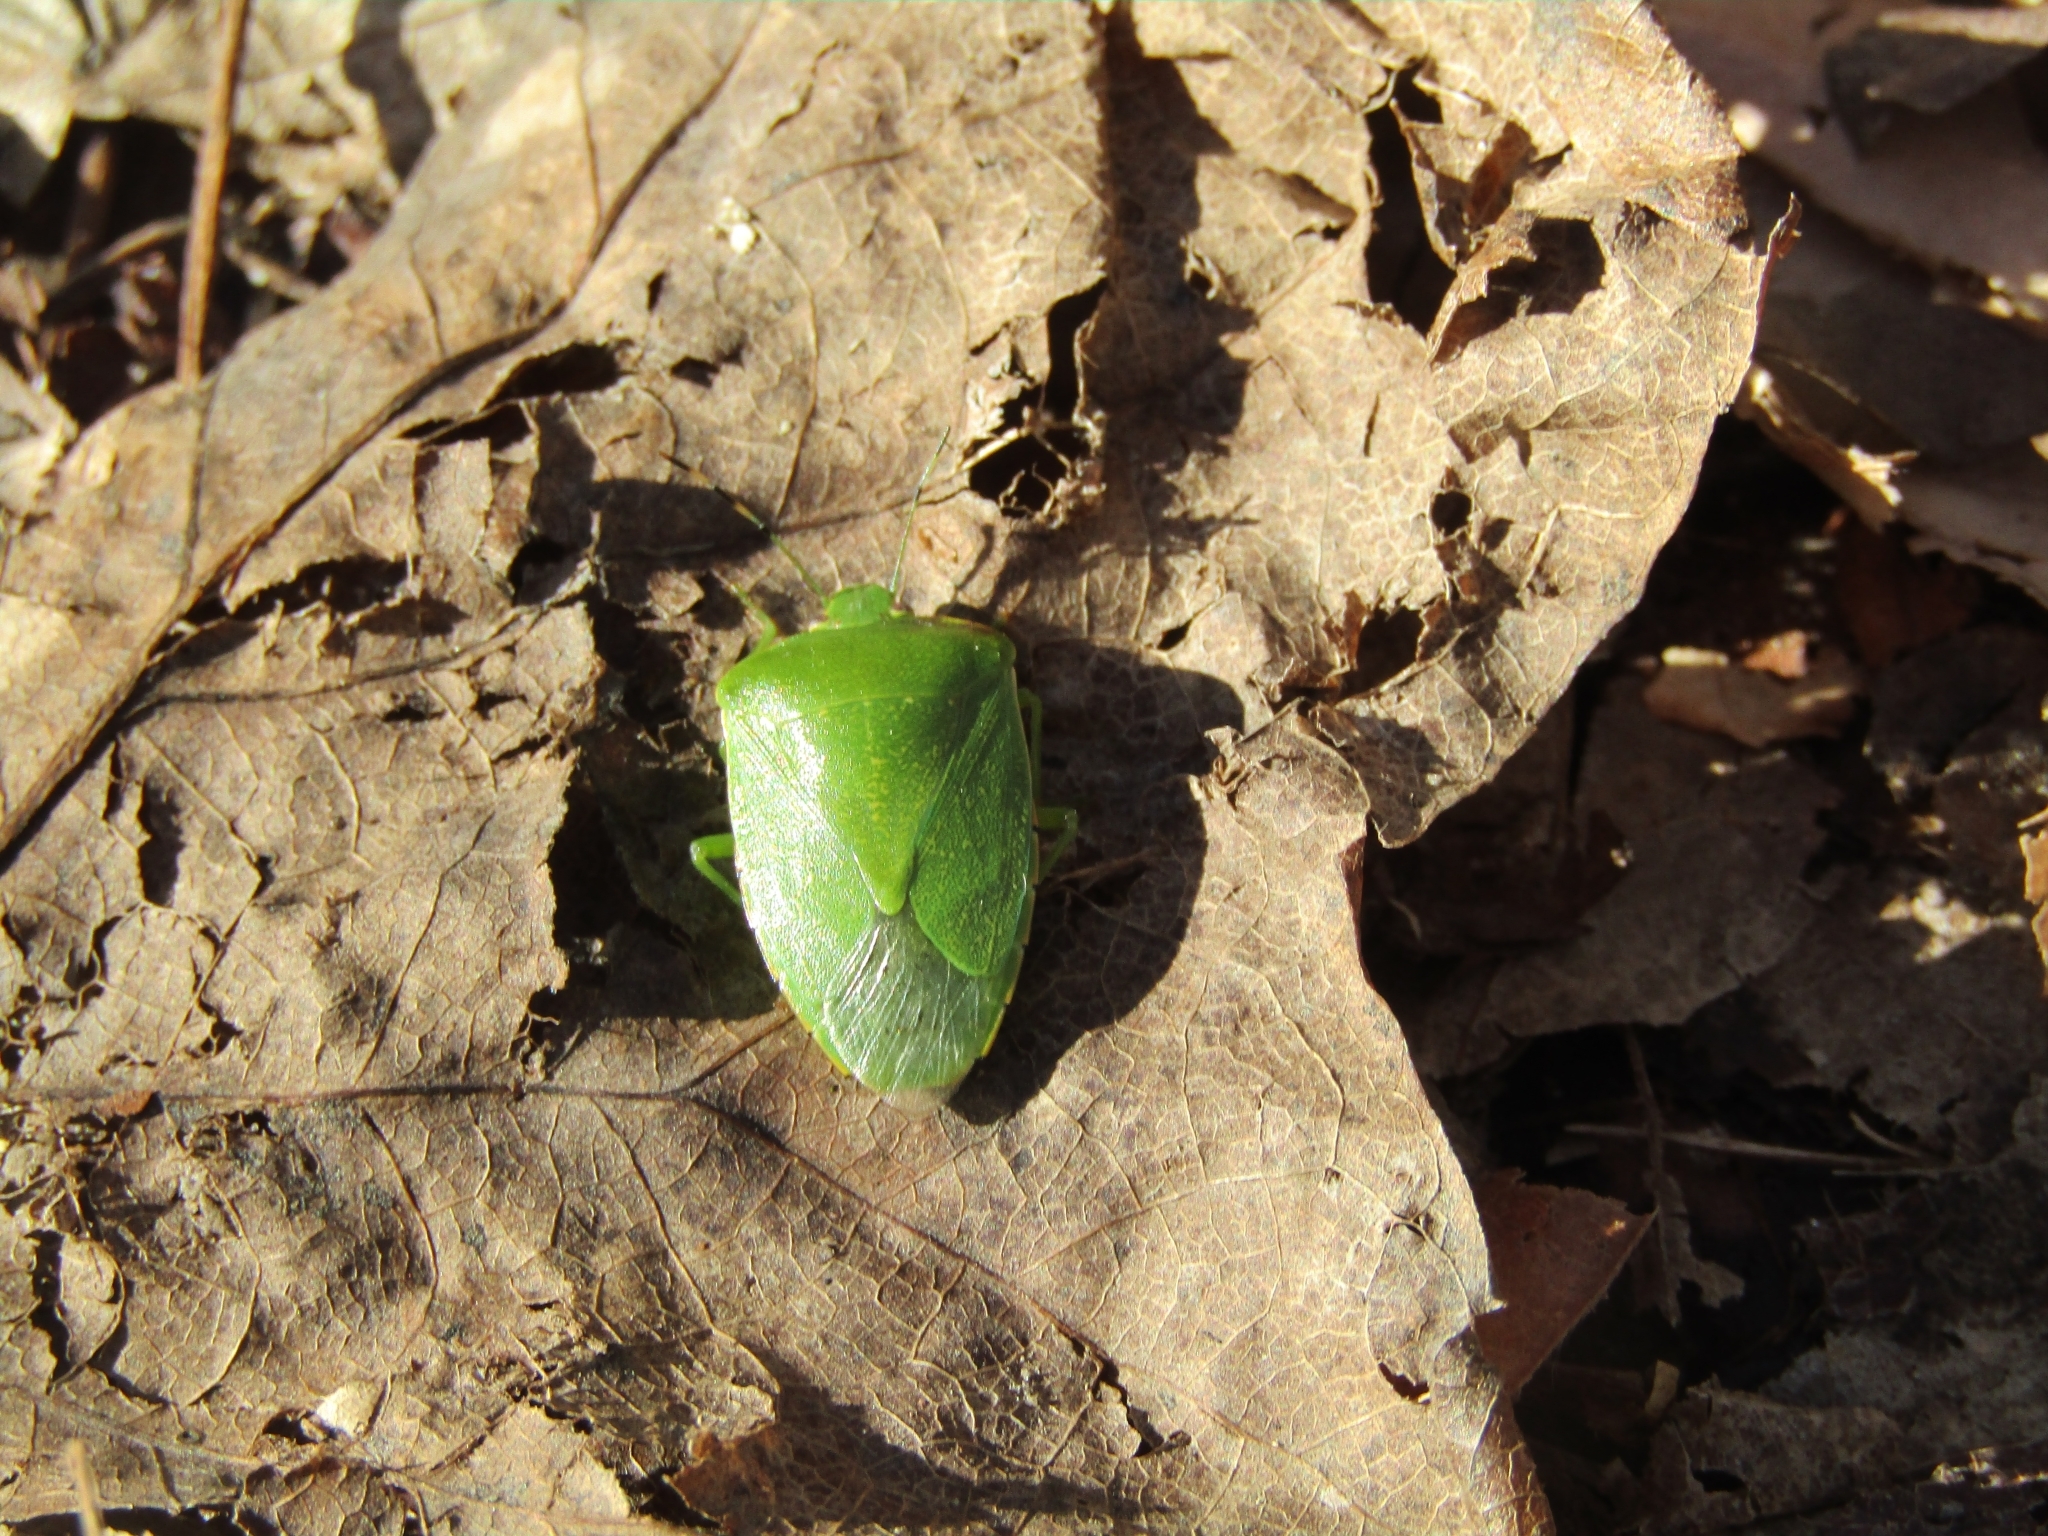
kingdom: Animalia
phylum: Arthropoda
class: Insecta
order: Hemiptera
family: Pentatomidae
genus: Chinavia
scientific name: Chinavia hilaris
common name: Green stink bug
